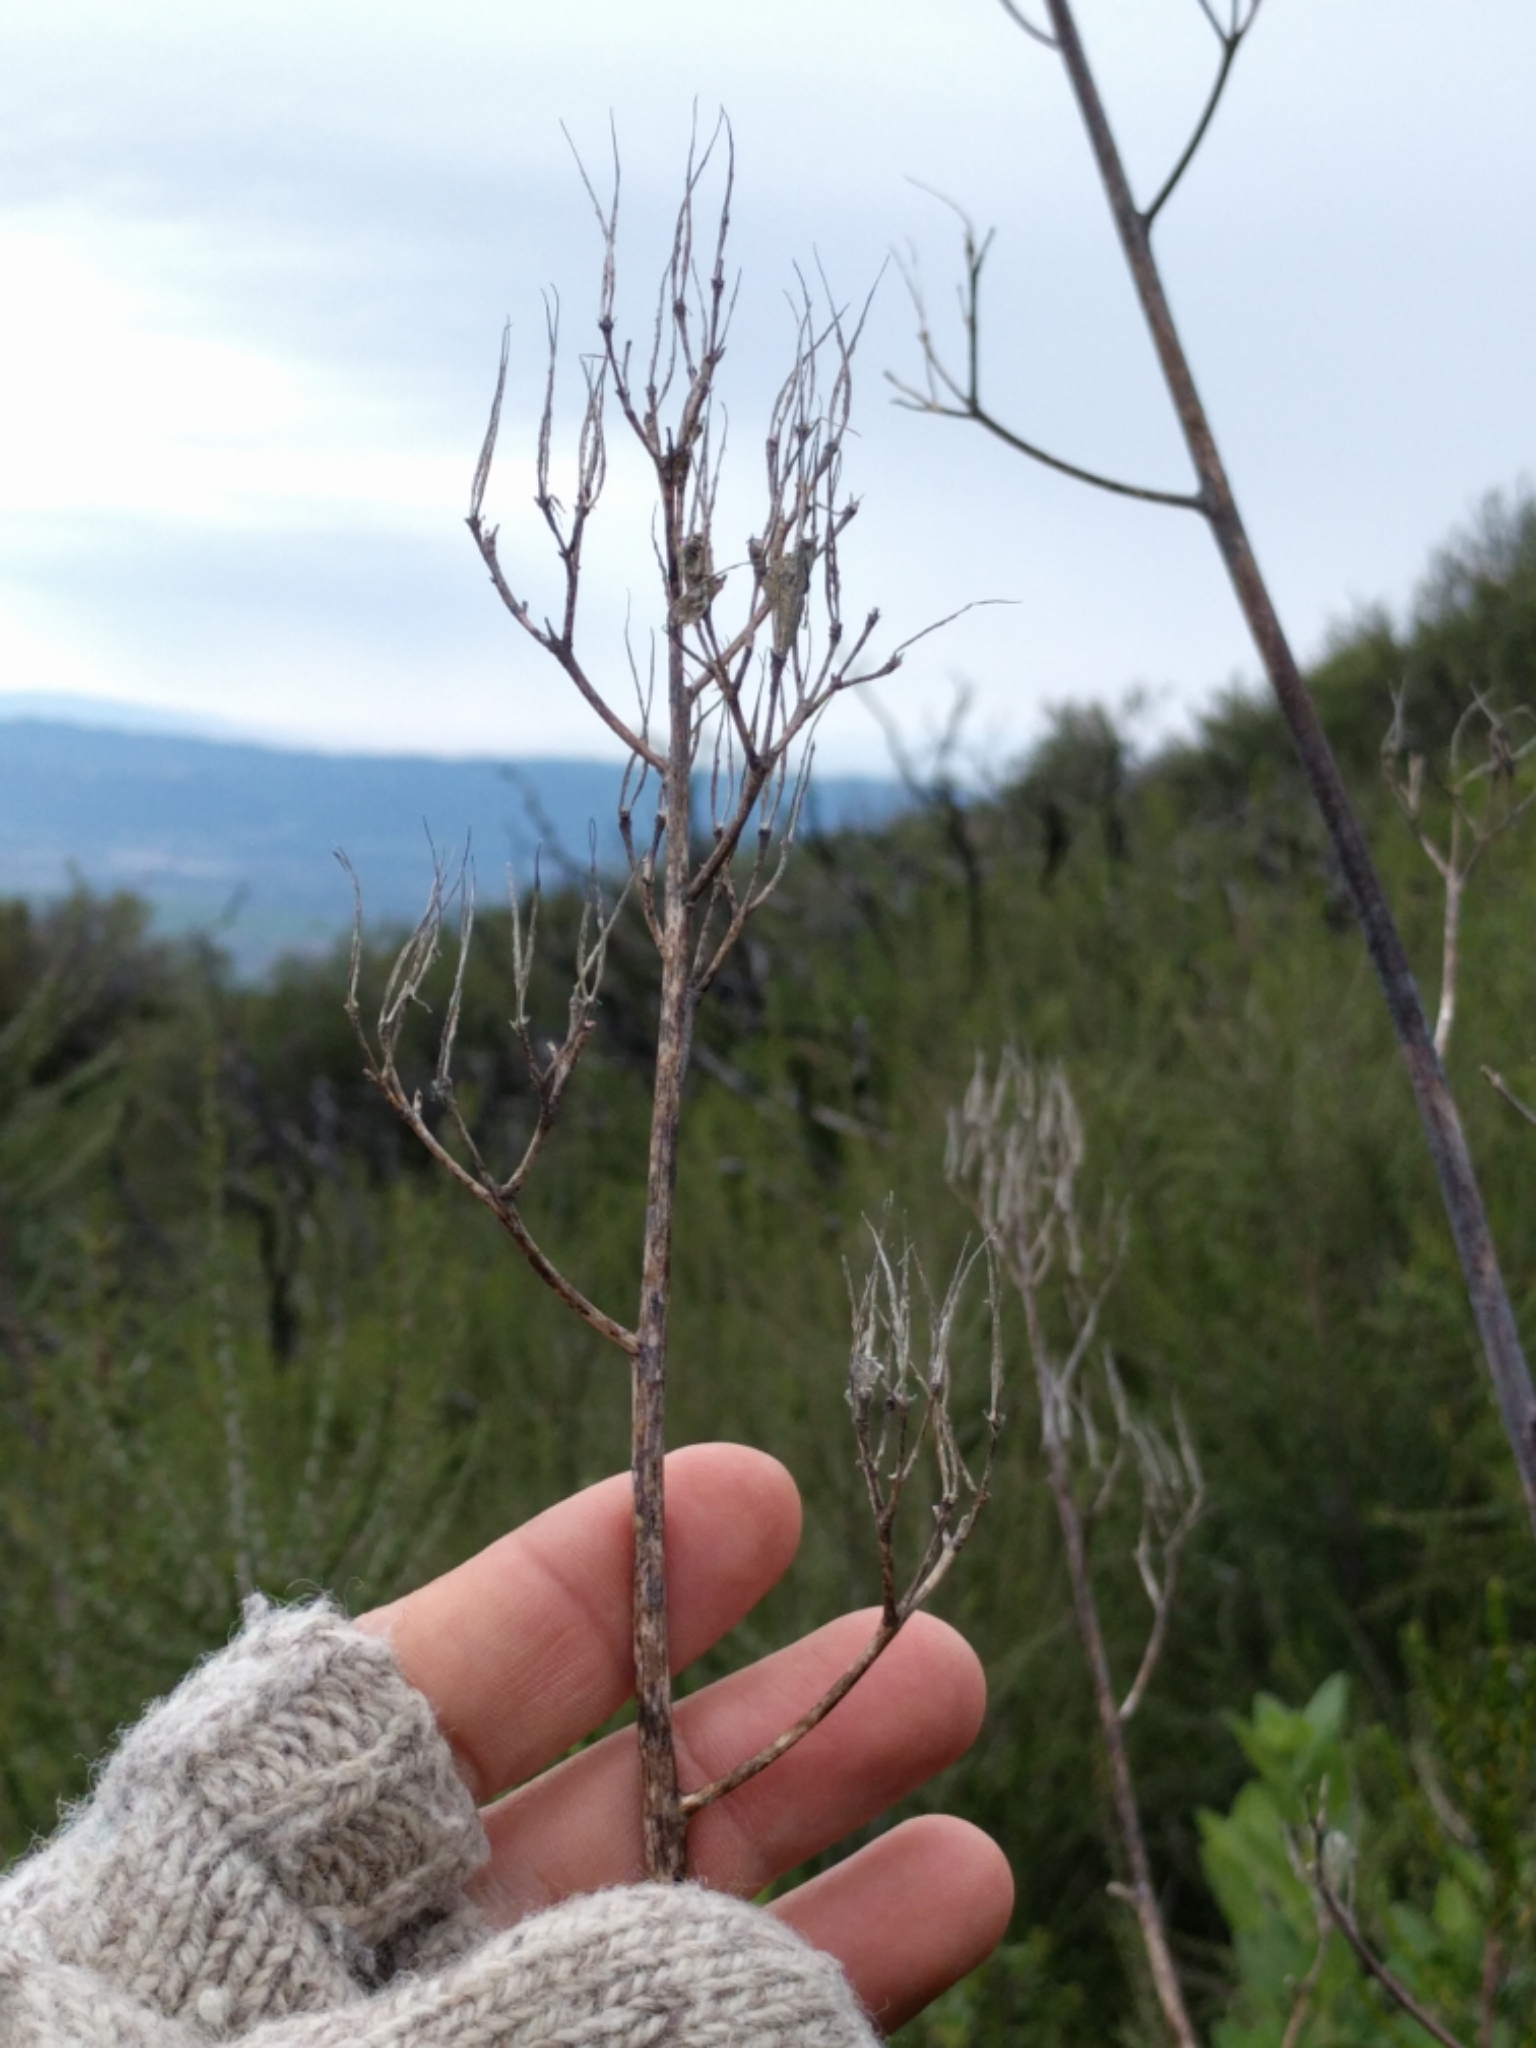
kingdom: Plantae
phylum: Tracheophyta
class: Magnoliopsida
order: Ranunculales
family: Papaveraceae
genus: Ehrendorferia
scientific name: Ehrendorferia chrysantha
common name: Golden eardrops
